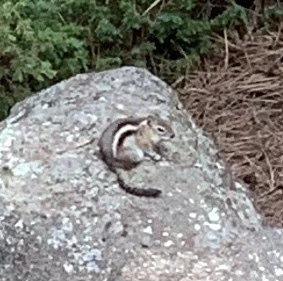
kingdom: Animalia
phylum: Chordata
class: Mammalia
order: Rodentia
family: Sciuridae
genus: Callospermophilus
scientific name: Callospermophilus lateralis
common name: Golden-mantled ground squirrel
